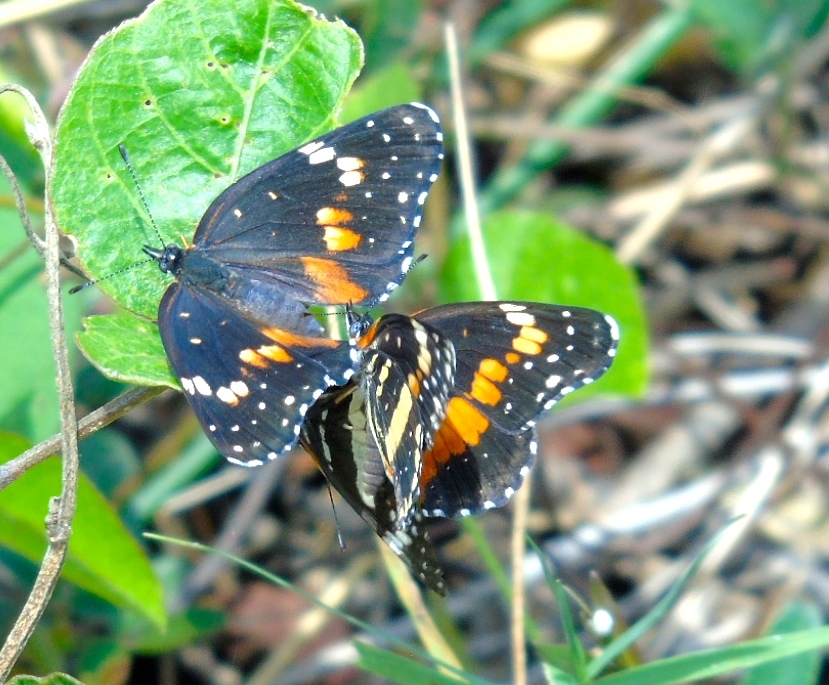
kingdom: Animalia
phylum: Arthropoda
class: Insecta
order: Lepidoptera
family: Nymphalidae
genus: Chlosyne
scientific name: Chlosyne lacinia
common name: Bordered patch
